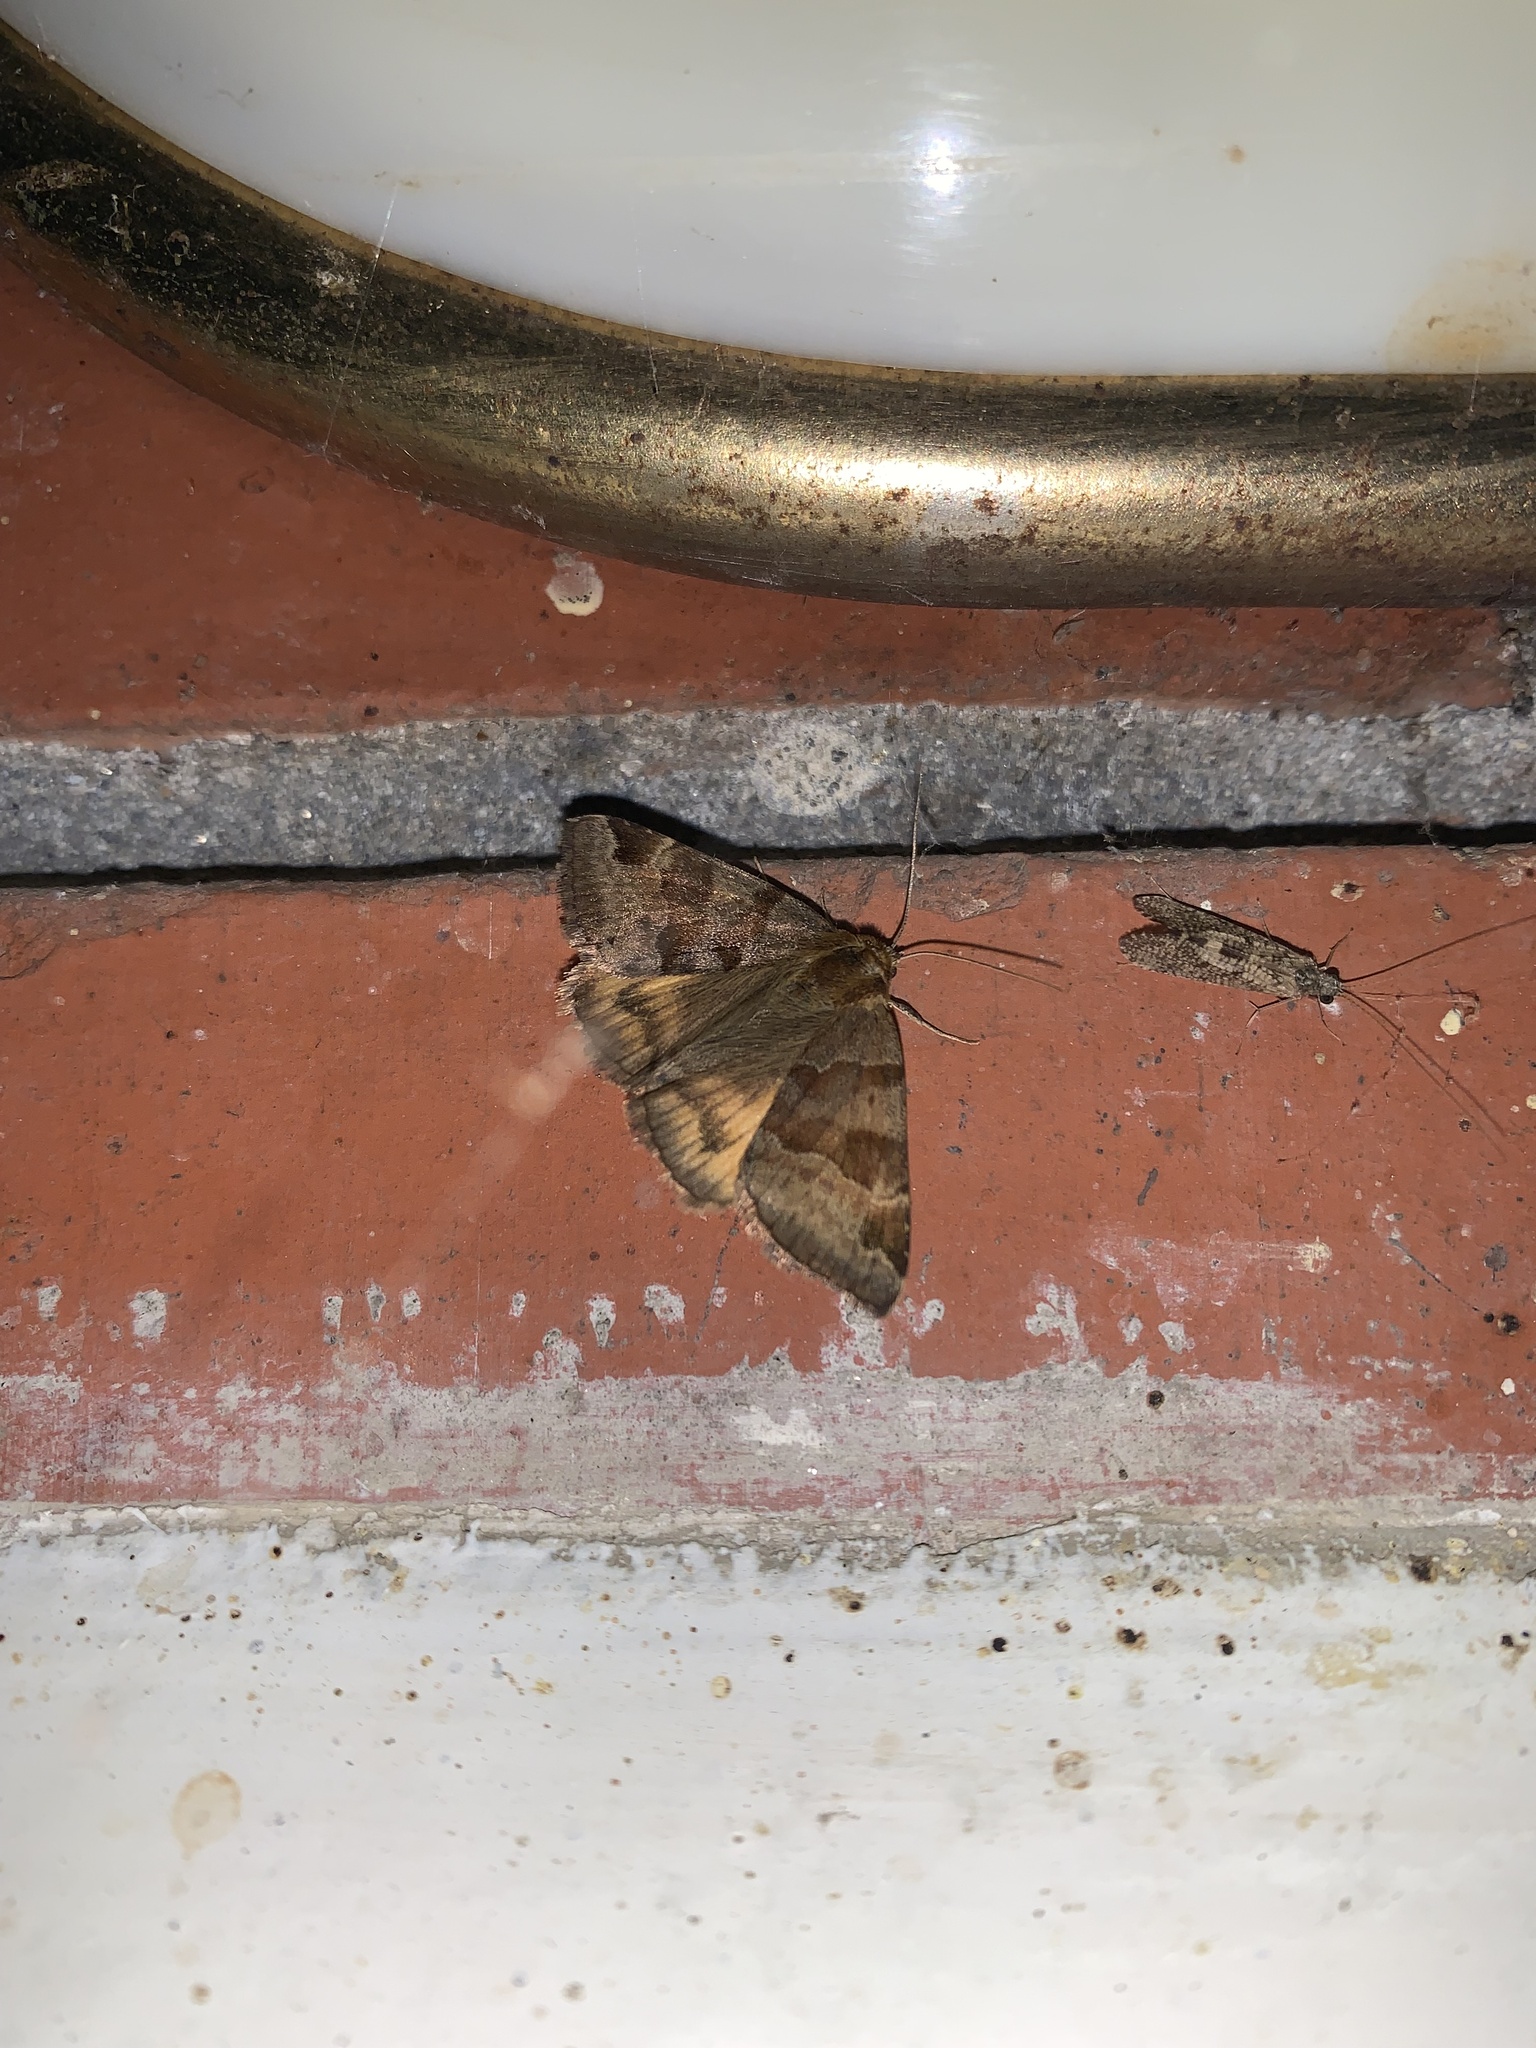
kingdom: Animalia
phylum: Arthropoda
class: Insecta
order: Lepidoptera
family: Erebidae
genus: Euclidia
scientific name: Euclidia glyphica
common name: Burnet companion
